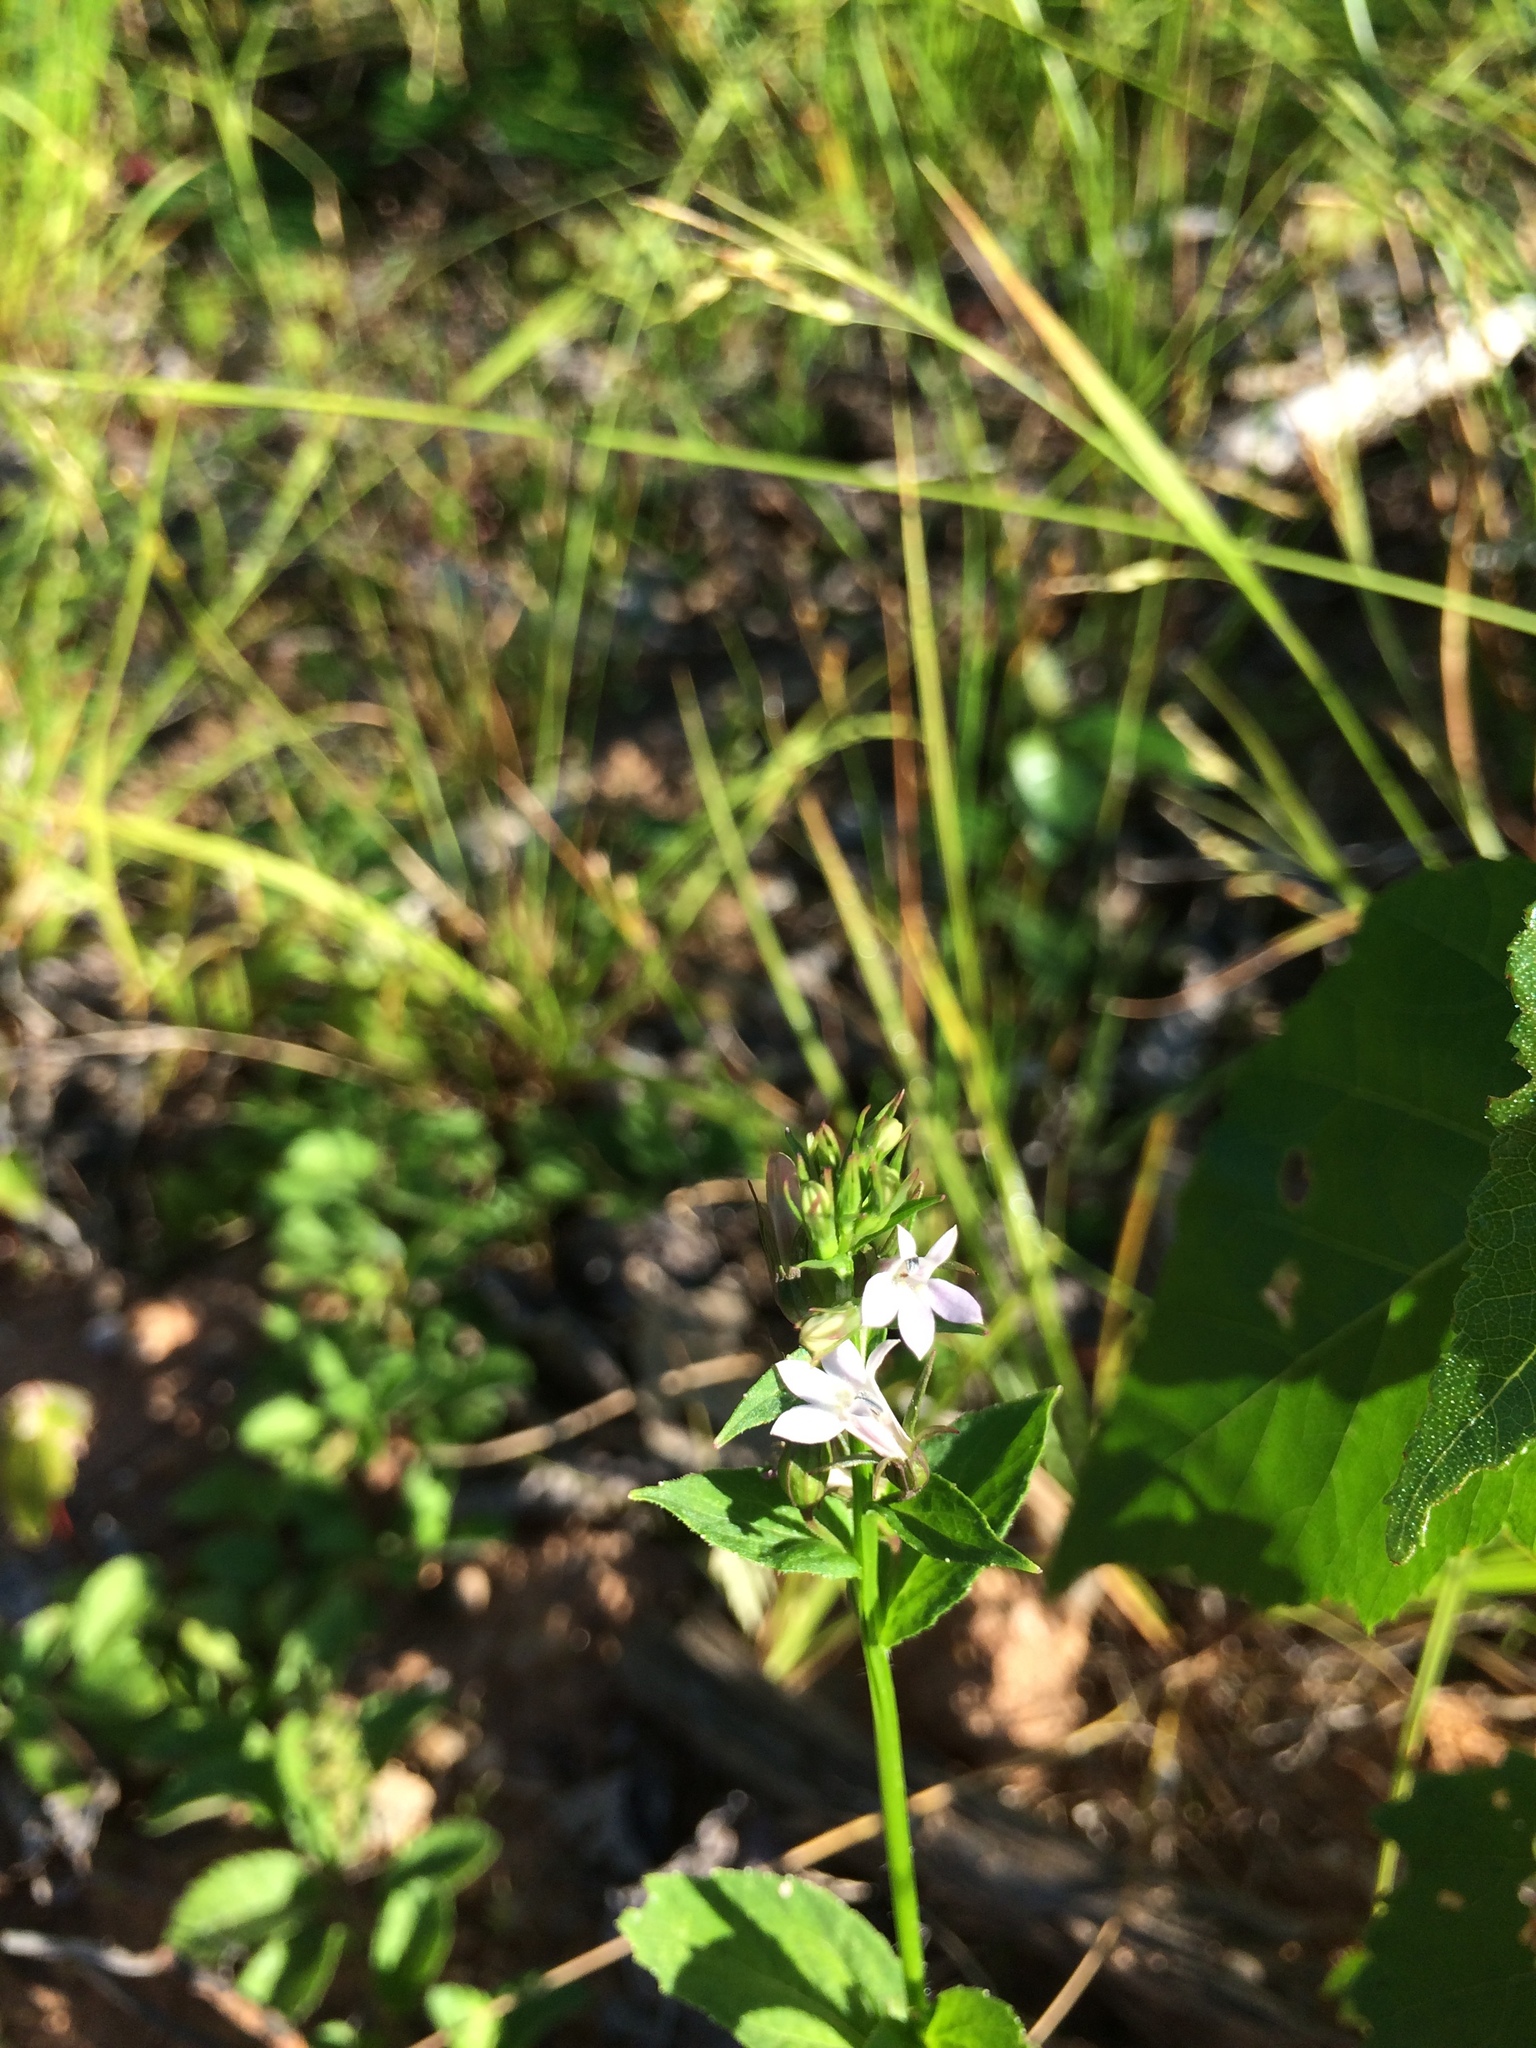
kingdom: Plantae
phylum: Tracheophyta
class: Magnoliopsida
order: Asterales
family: Campanulaceae
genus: Lobelia
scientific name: Lobelia inflata
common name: Indian tobacco
